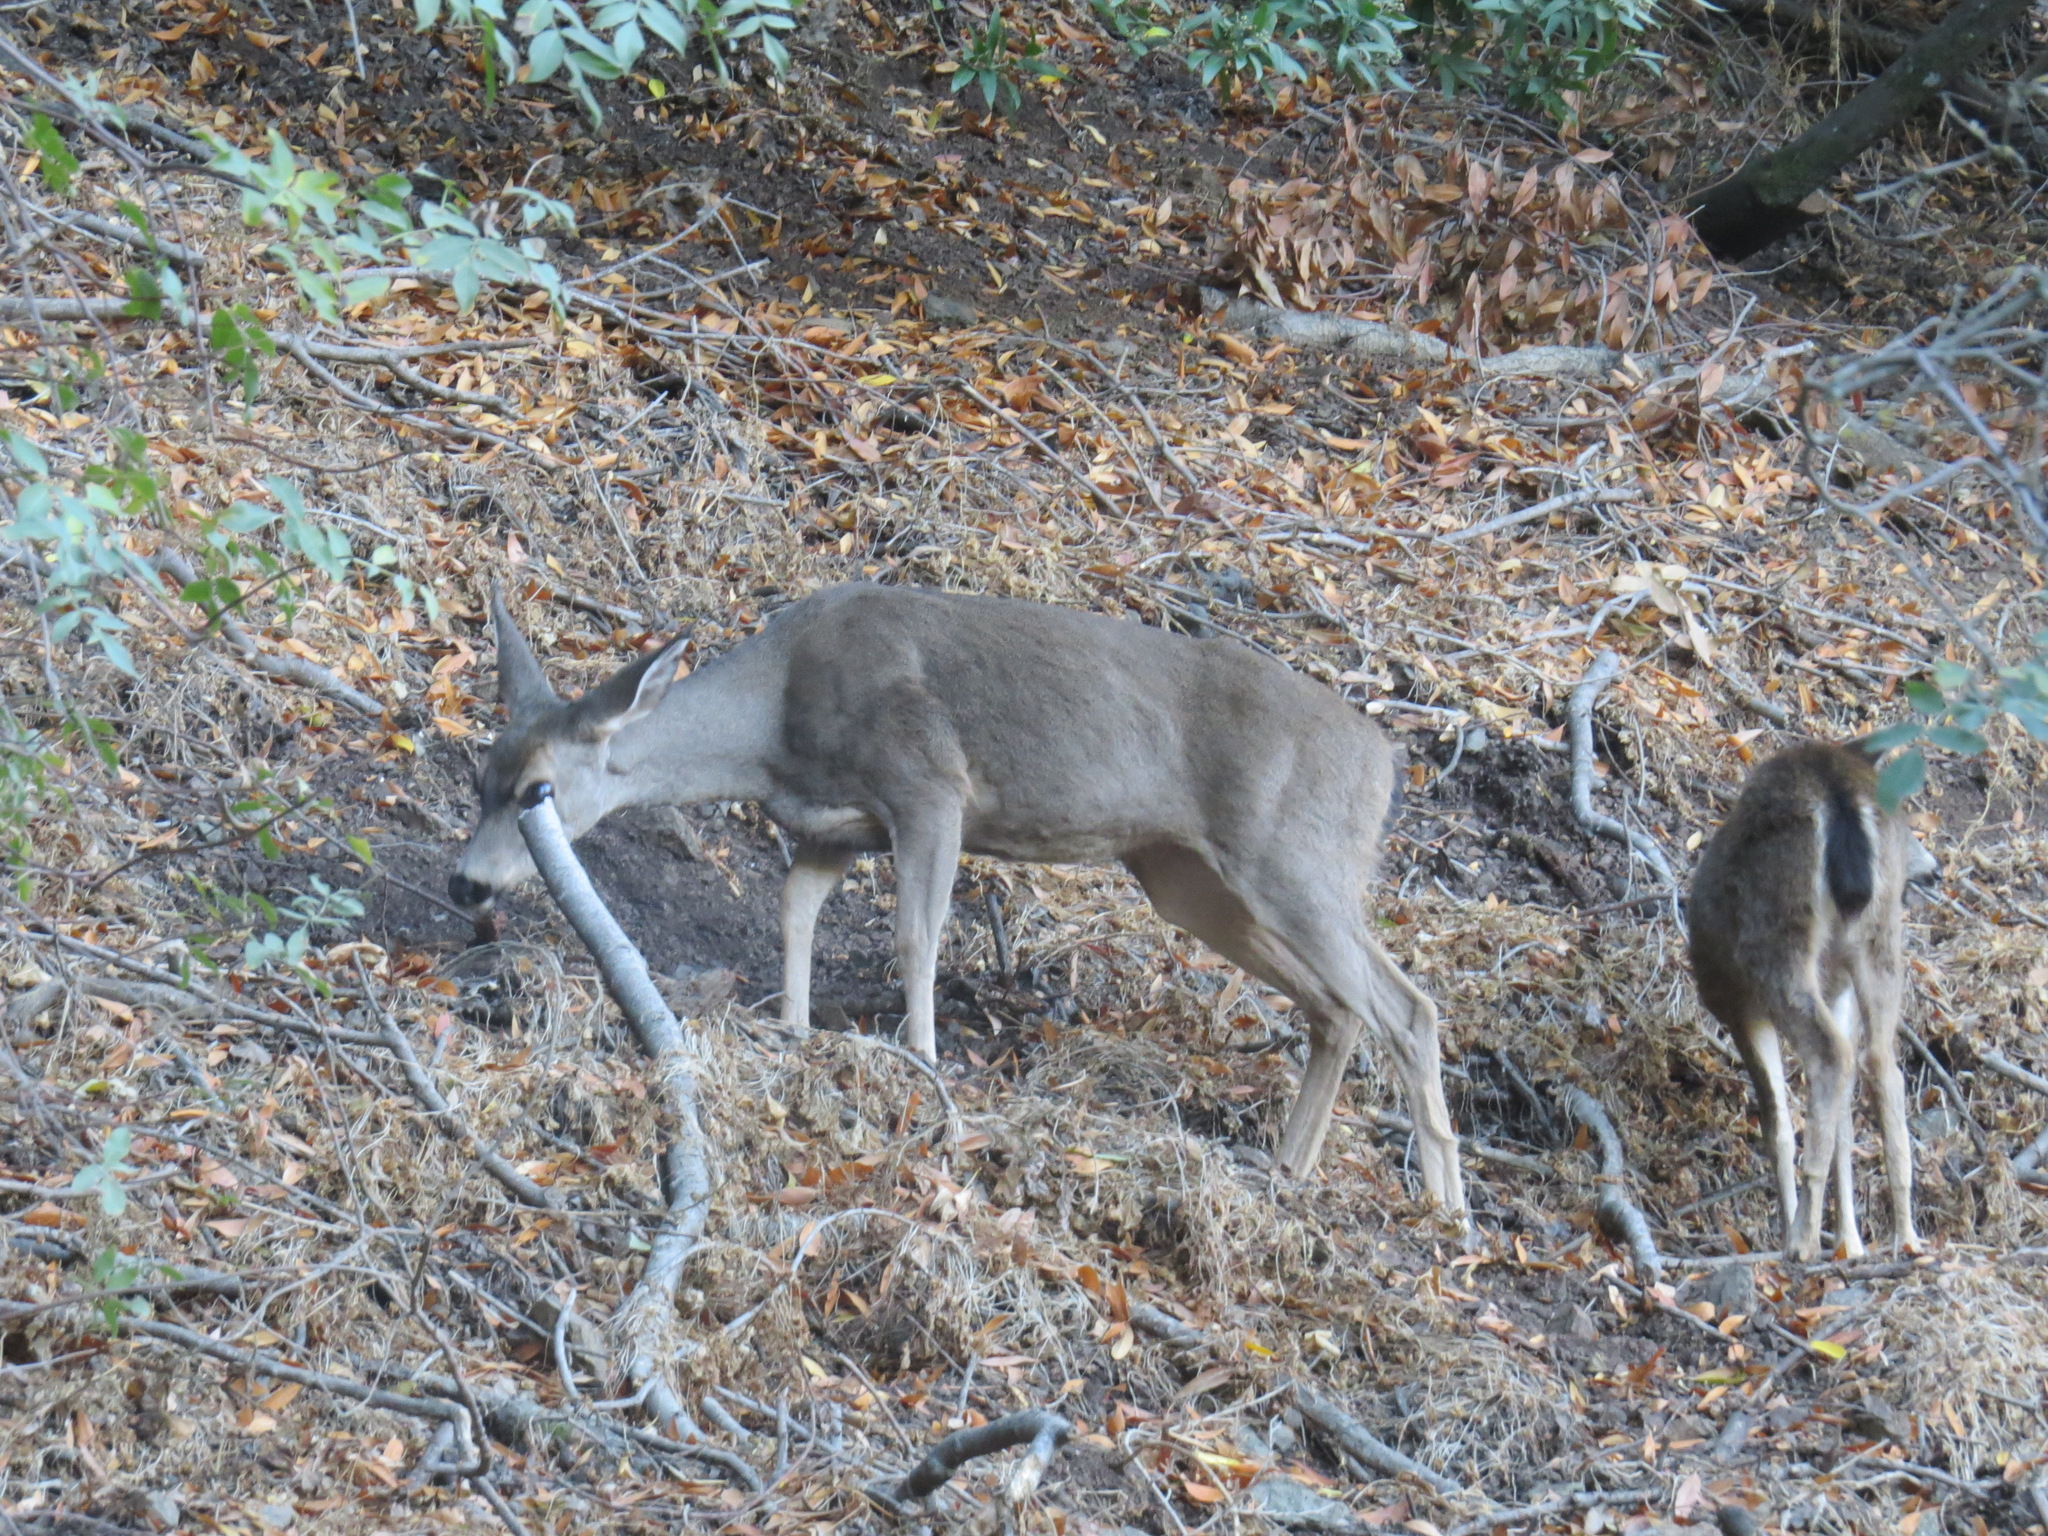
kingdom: Animalia
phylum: Chordata
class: Mammalia
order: Artiodactyla
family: Cervidae
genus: Odocoileus
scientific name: Odocoileus hemionus
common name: Mule deer
